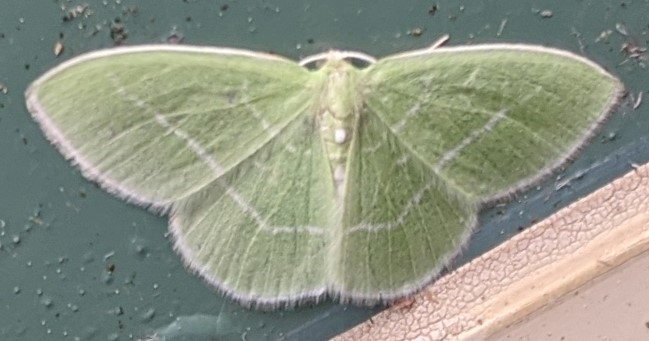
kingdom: Animalia
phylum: Arthropoda
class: Insecta
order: Lepidoptera
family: Geometridae
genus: Nemoria
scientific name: Nemoria mimosaria
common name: White-fringed emerald
